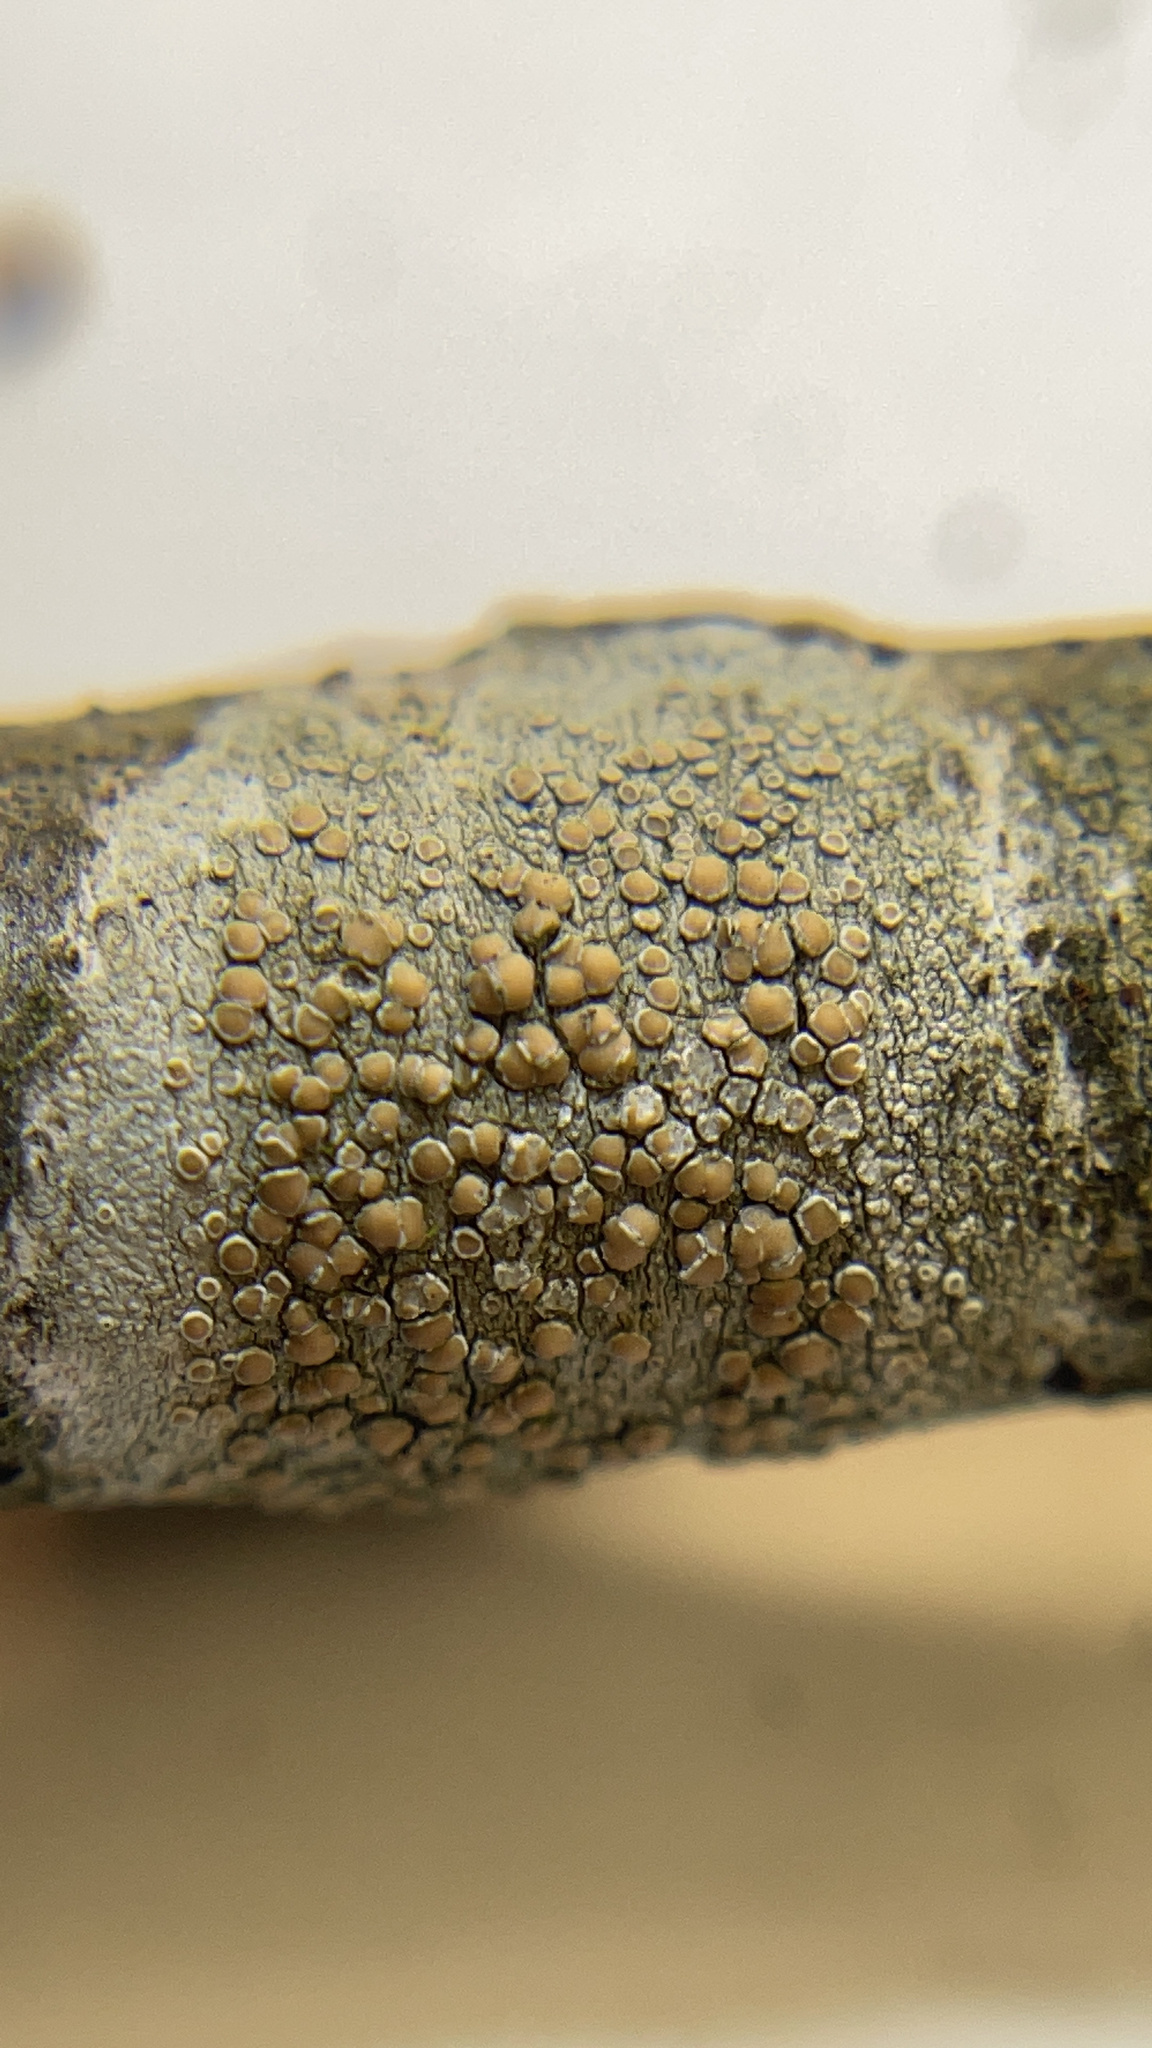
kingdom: Fungi
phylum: Ascomycota
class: Lecanoromycetes
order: Lecanorales
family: Lecanoraceae
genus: Lecanora
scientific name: Lecanora
